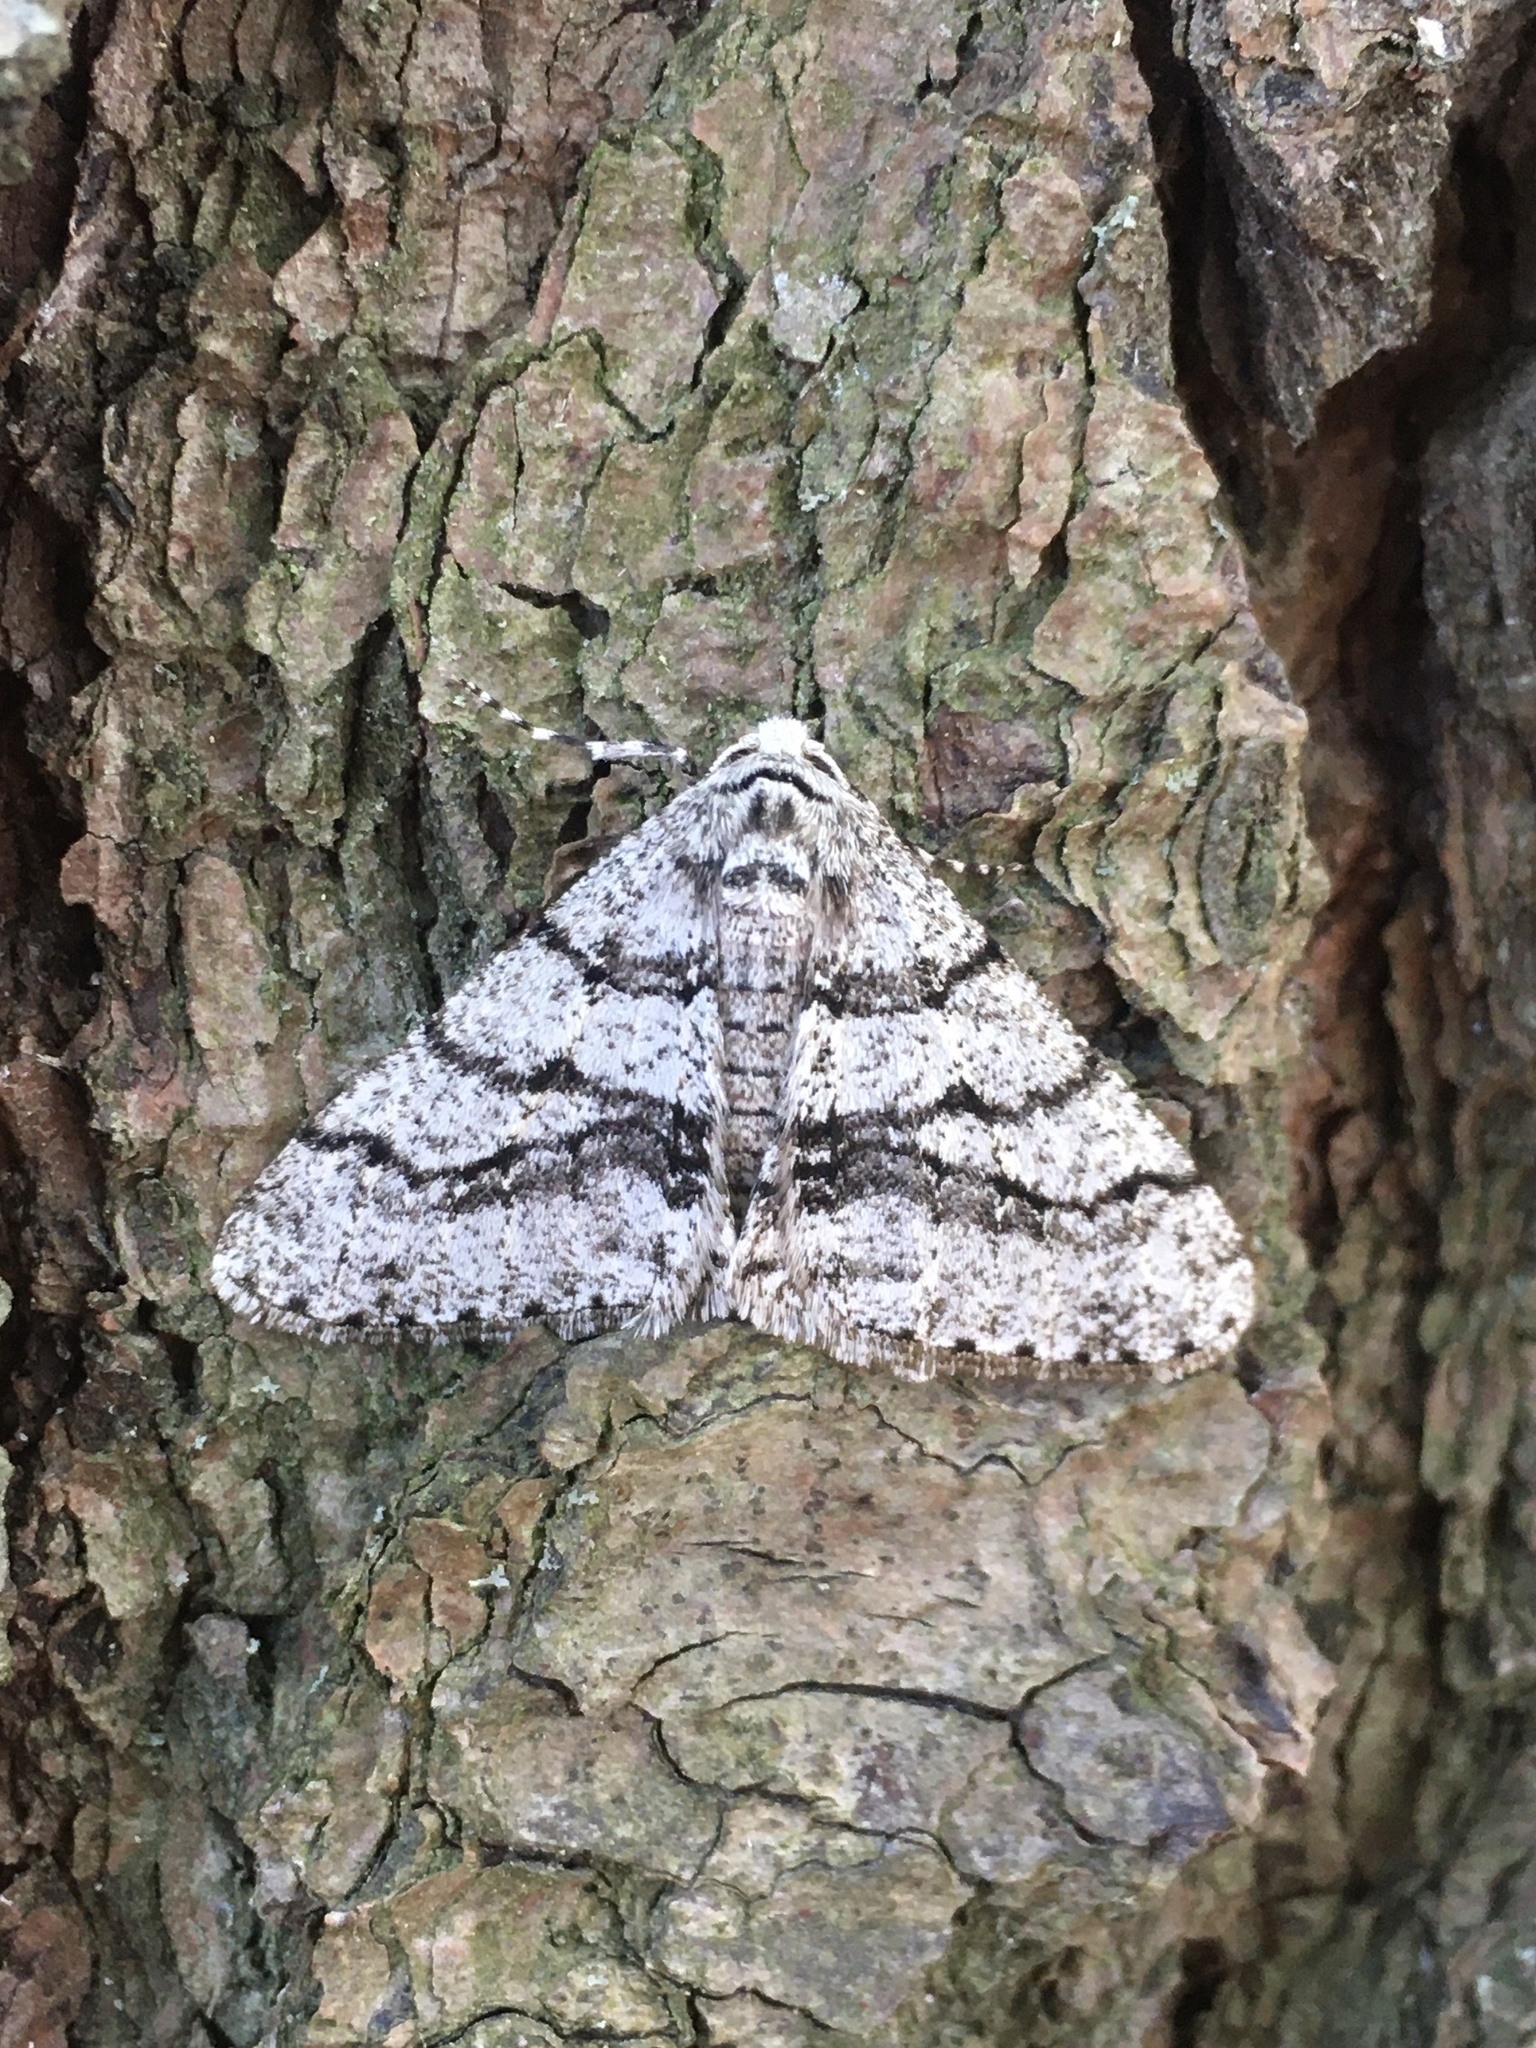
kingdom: Animalia
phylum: Arthropoda
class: Insecta
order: Lepidoptera
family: Geometridae
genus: Phigalia
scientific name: Phigalia titea
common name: Spiny looper
